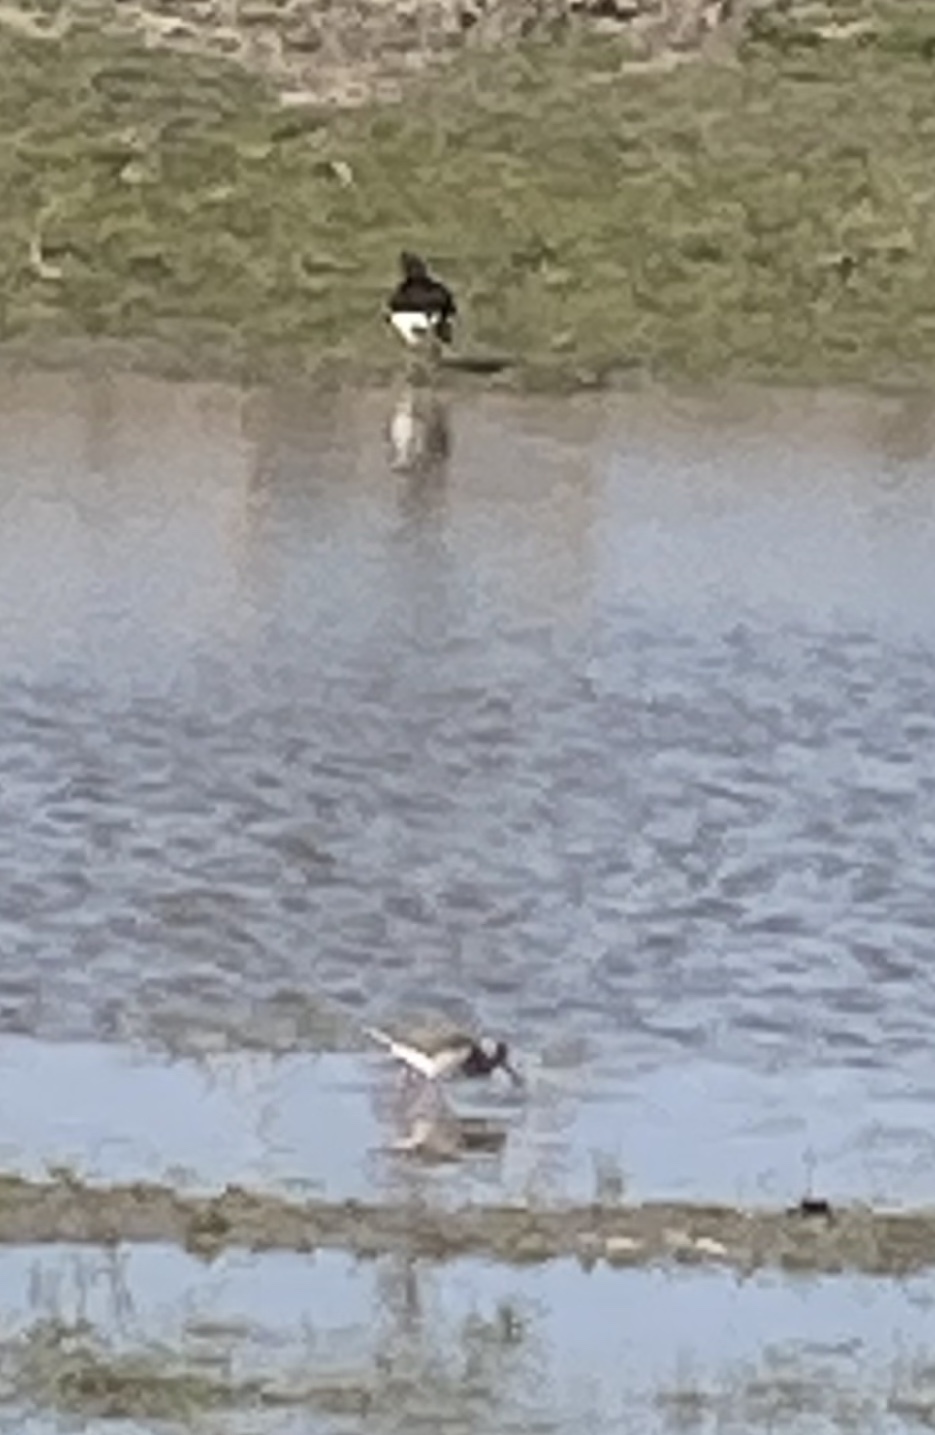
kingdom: Animalia
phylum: Chordata
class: Aves
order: Charadriiformes
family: Haematopodidae
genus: Haematopus
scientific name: Haematopus ostralegus
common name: Eurasian oystercatcher
